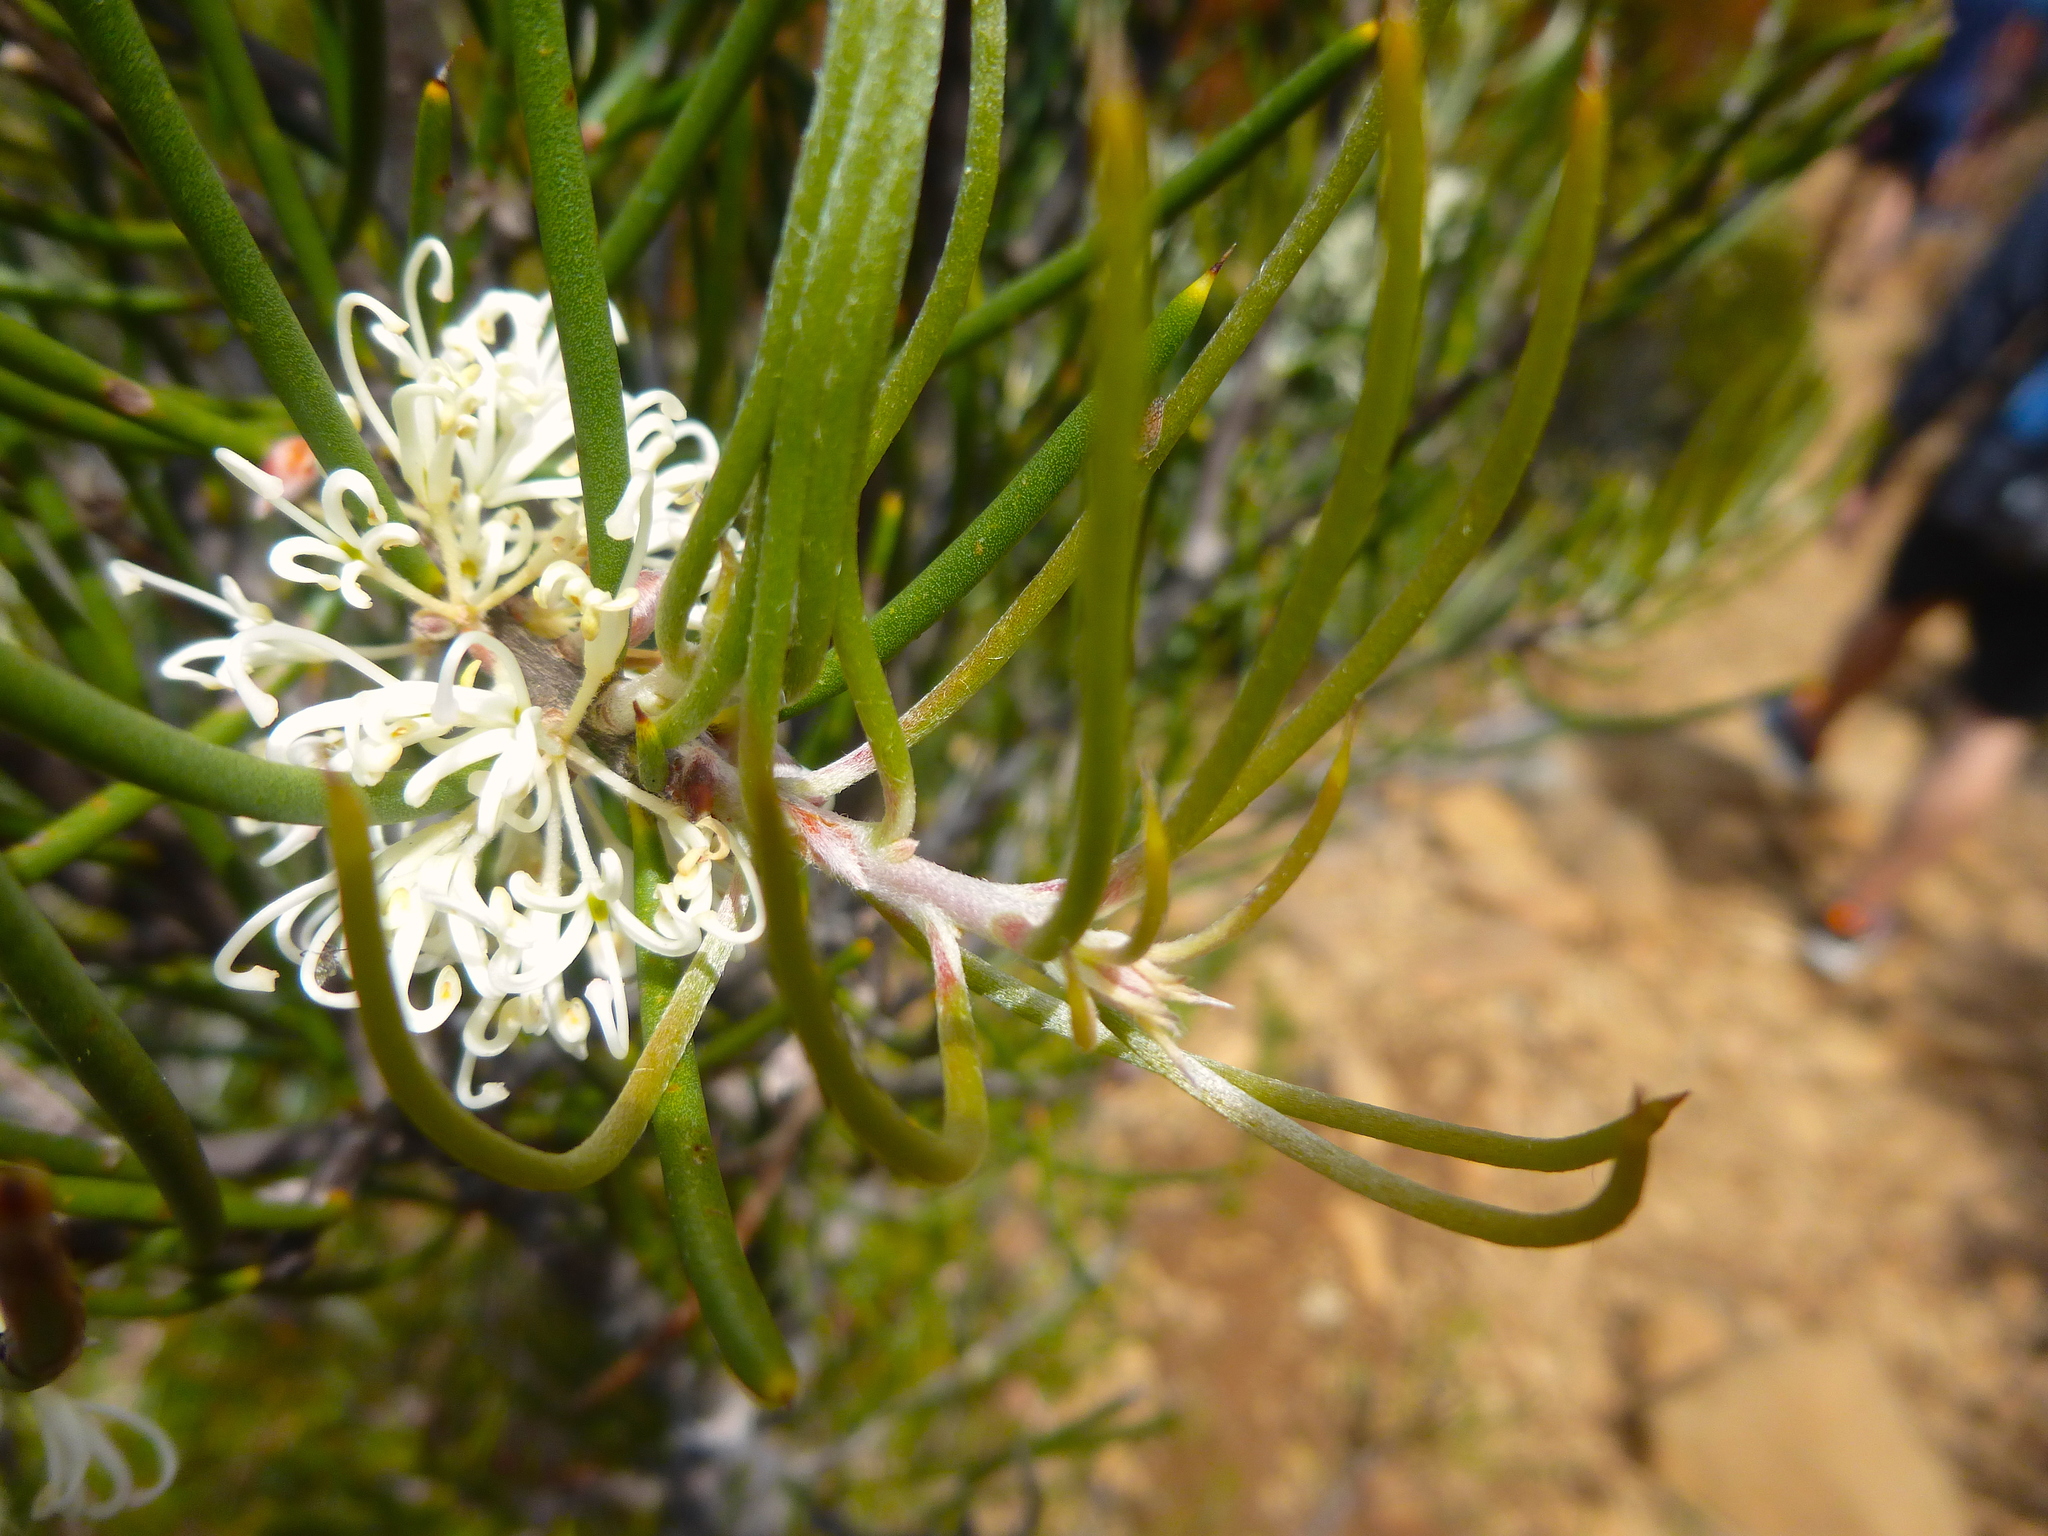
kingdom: Plantae
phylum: Tracheophyta
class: Magnoliopsida
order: Proteales
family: Proteaceae
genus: Hakea
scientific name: Hakea lissosperma
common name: Mountain needlewood
